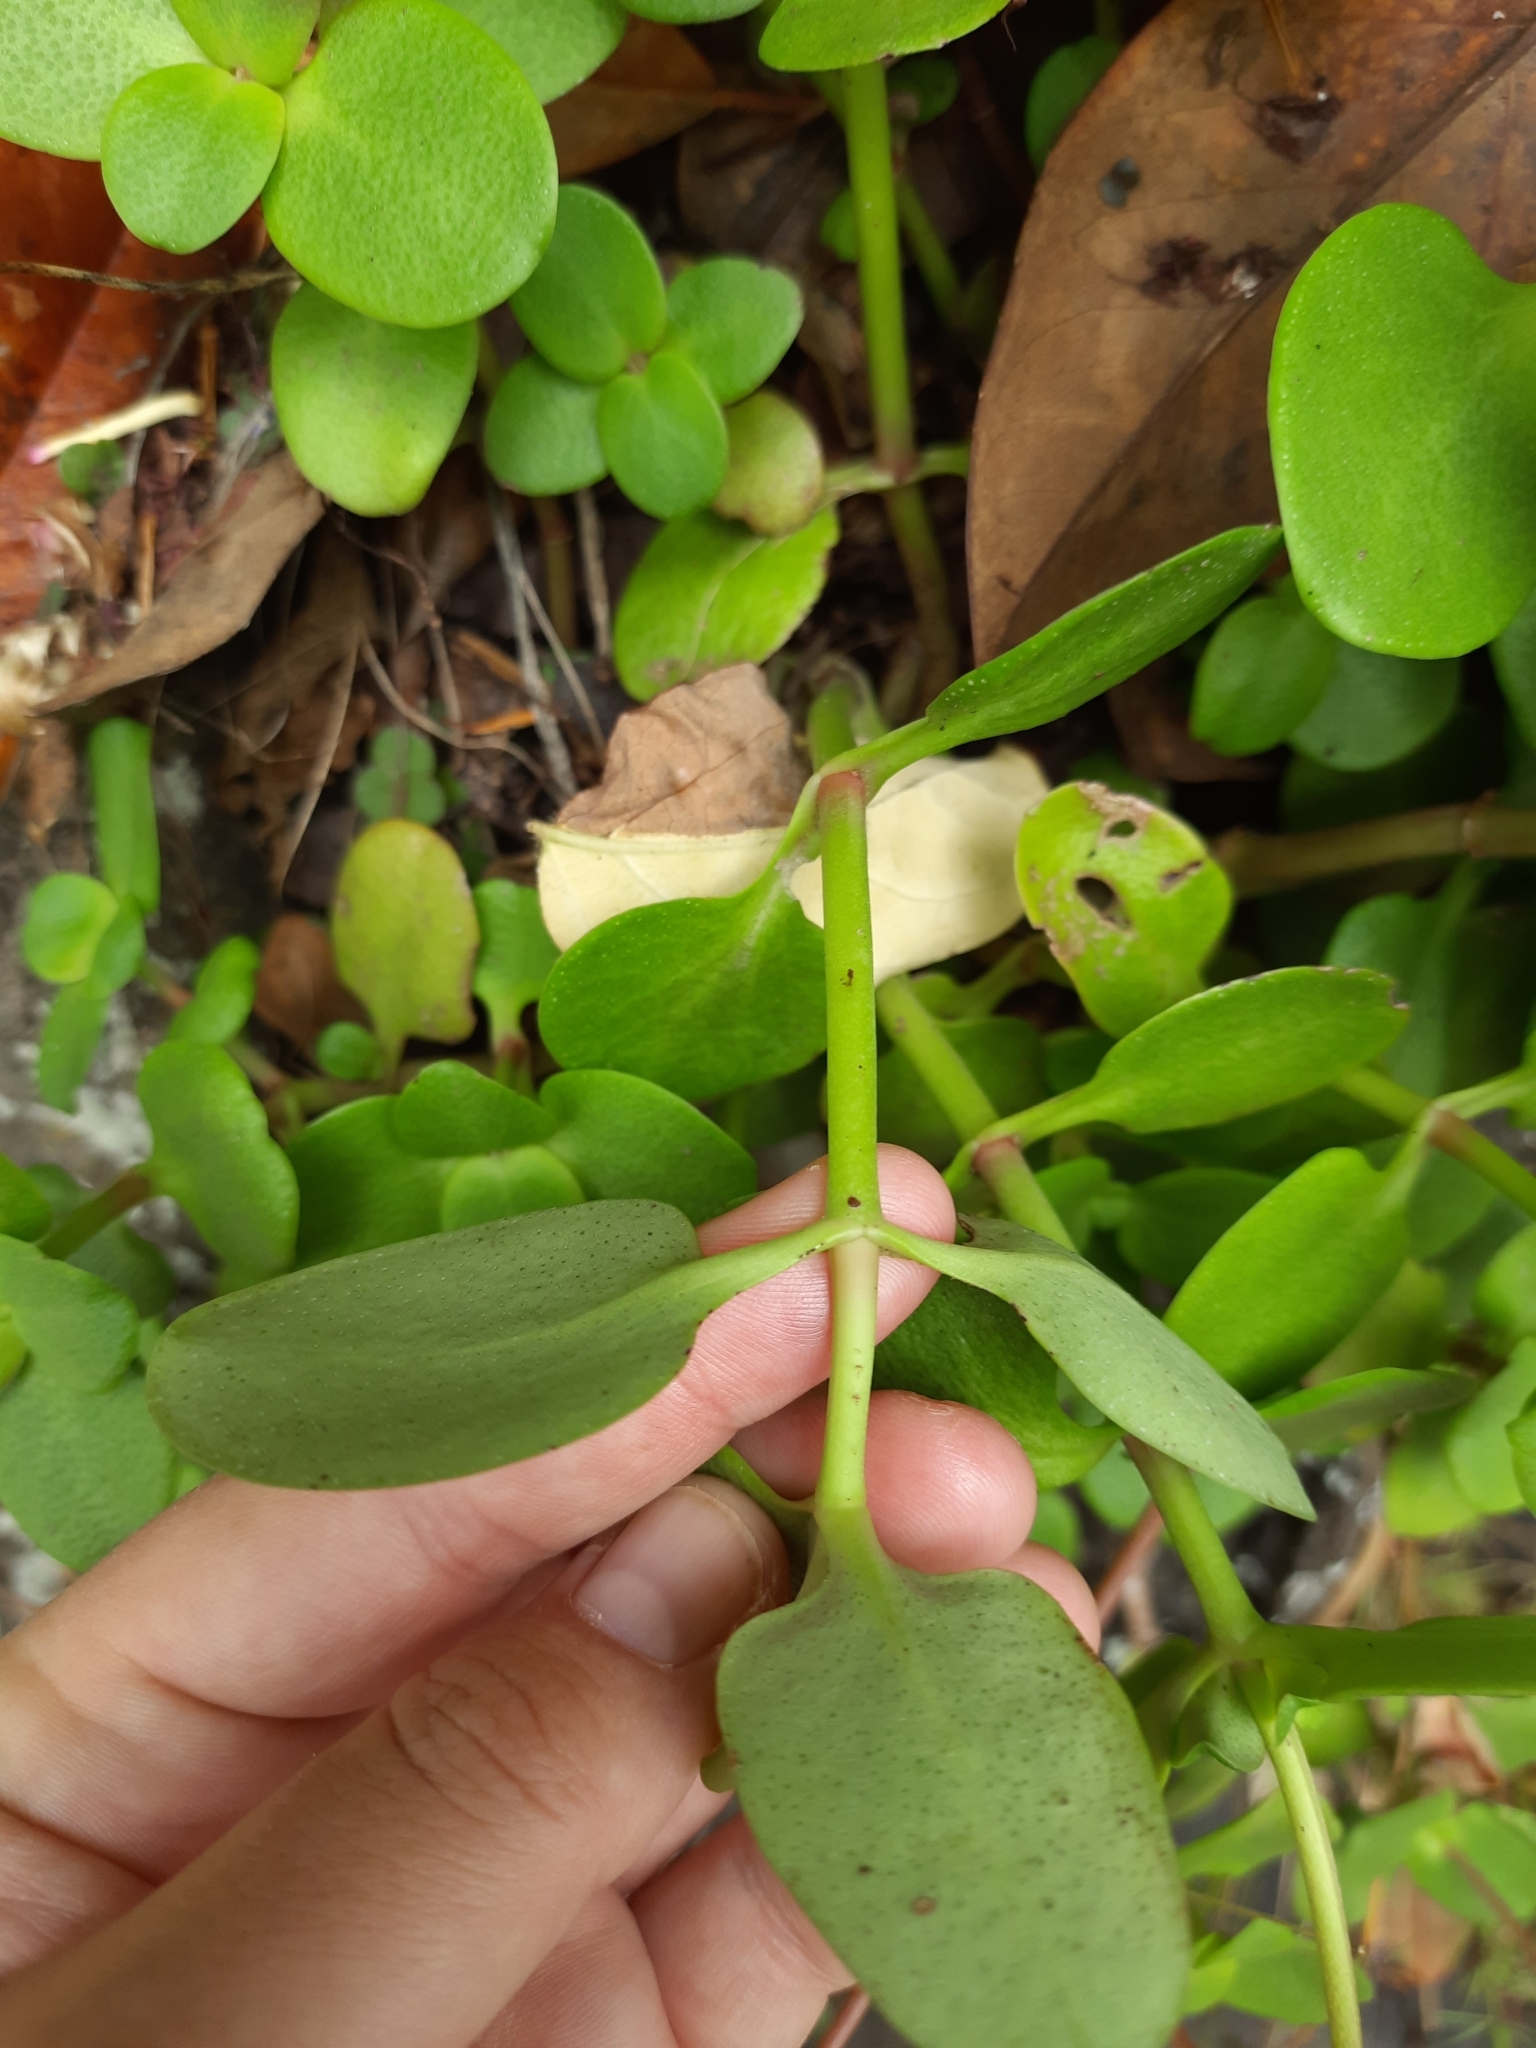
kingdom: Plantae
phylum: Tracheophyta
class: Magnoliopsida
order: Saxifragales
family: Crassulaceae
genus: Crassula
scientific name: Crassula multicava
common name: Cape province pygmyweed
